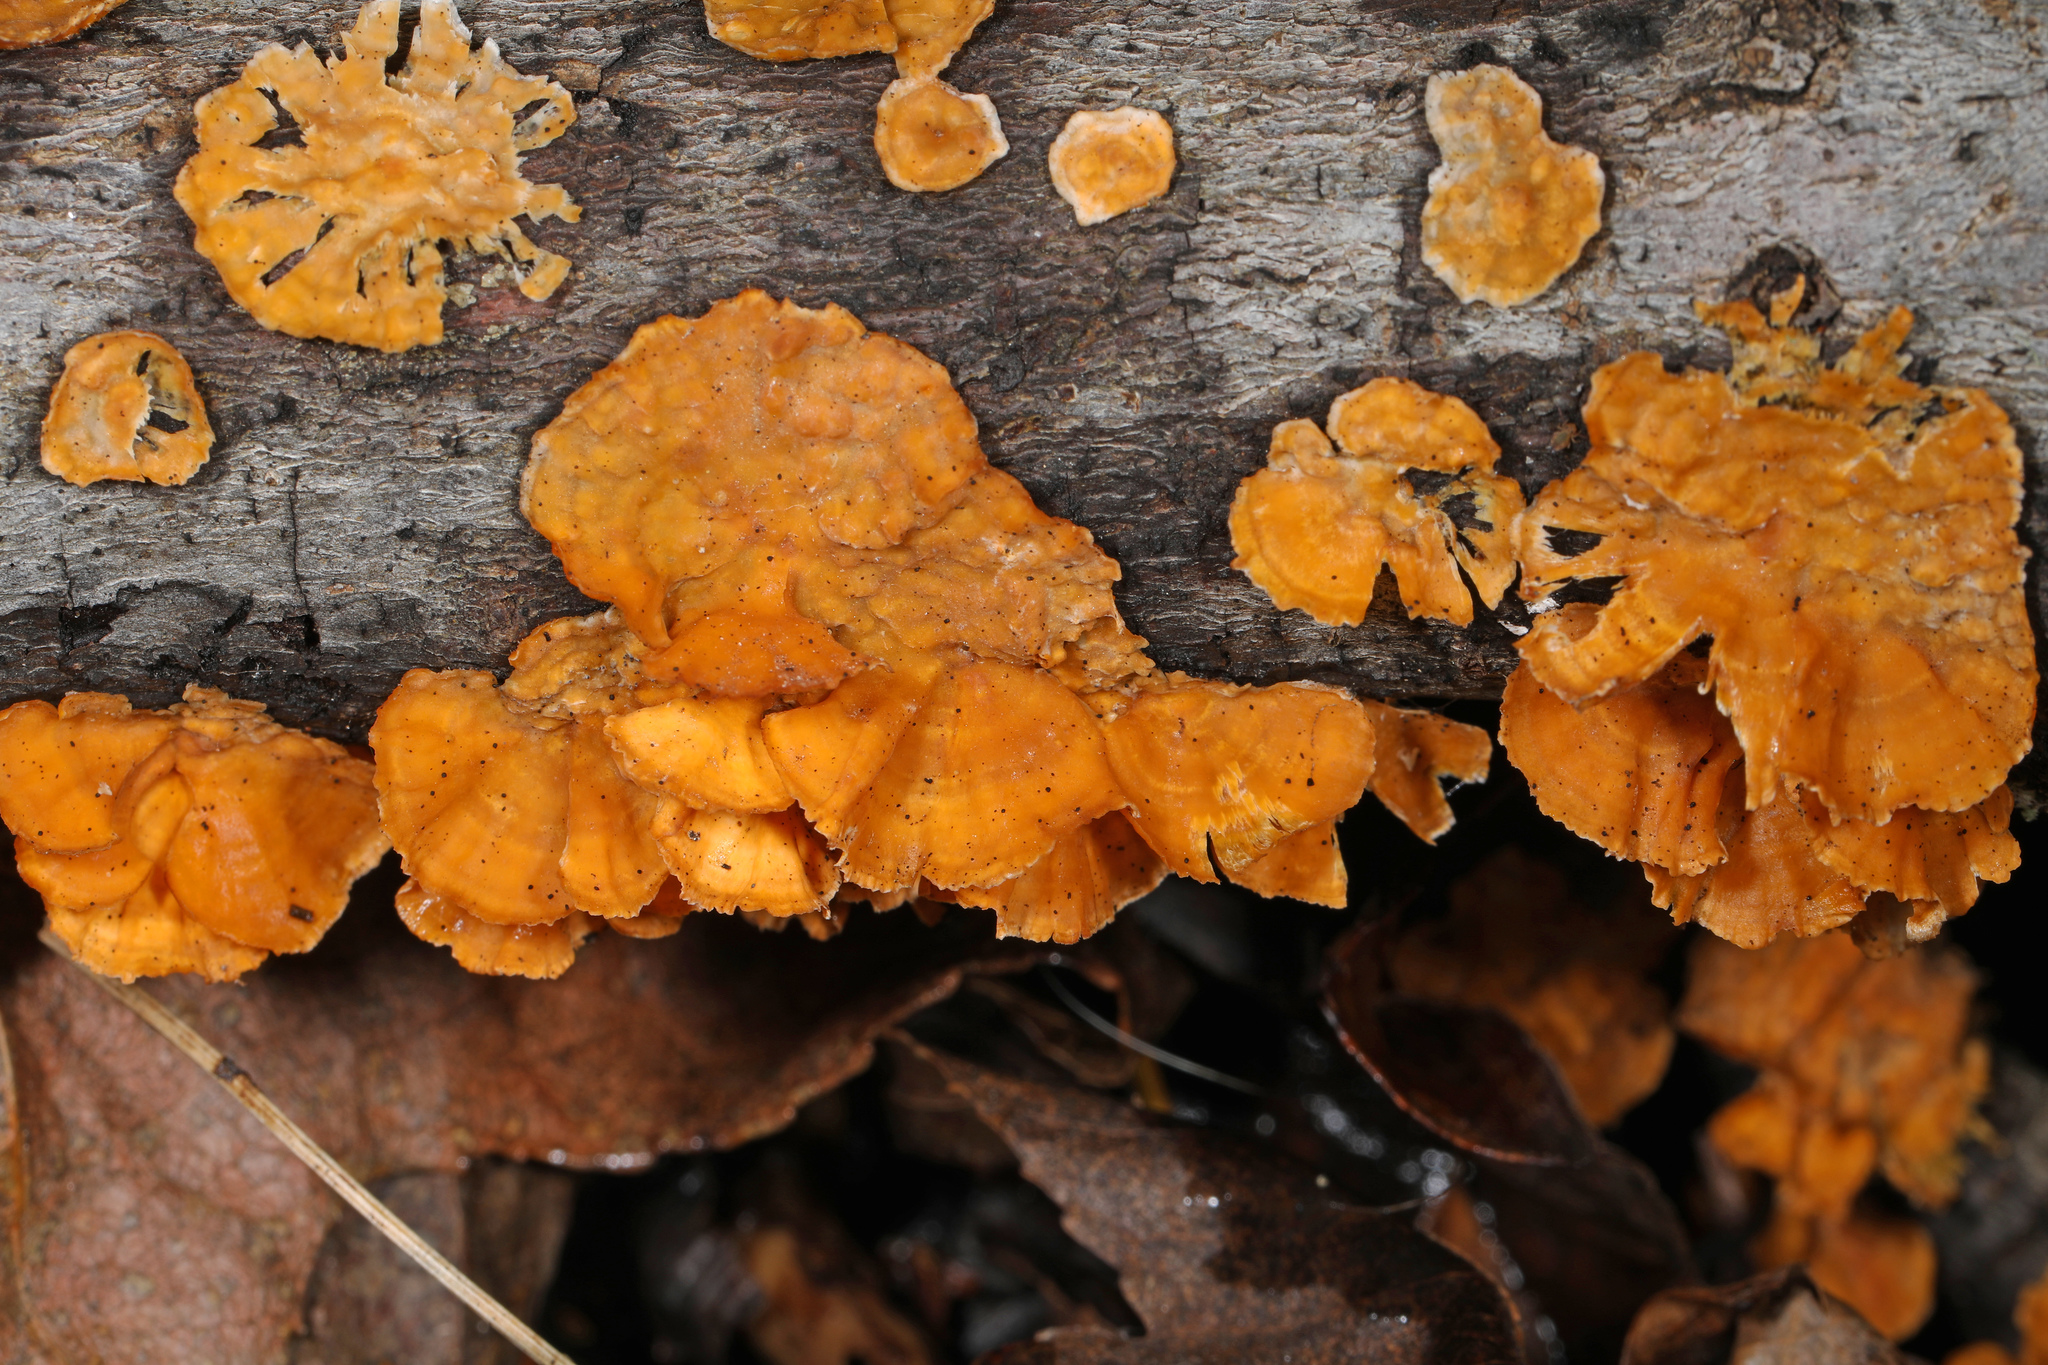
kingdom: Fungi
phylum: Basidiomycota
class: Agaricomycetes
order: Russulales
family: Stereaceae
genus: Stereum
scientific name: Stereum complicatum
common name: Crowded parchment
